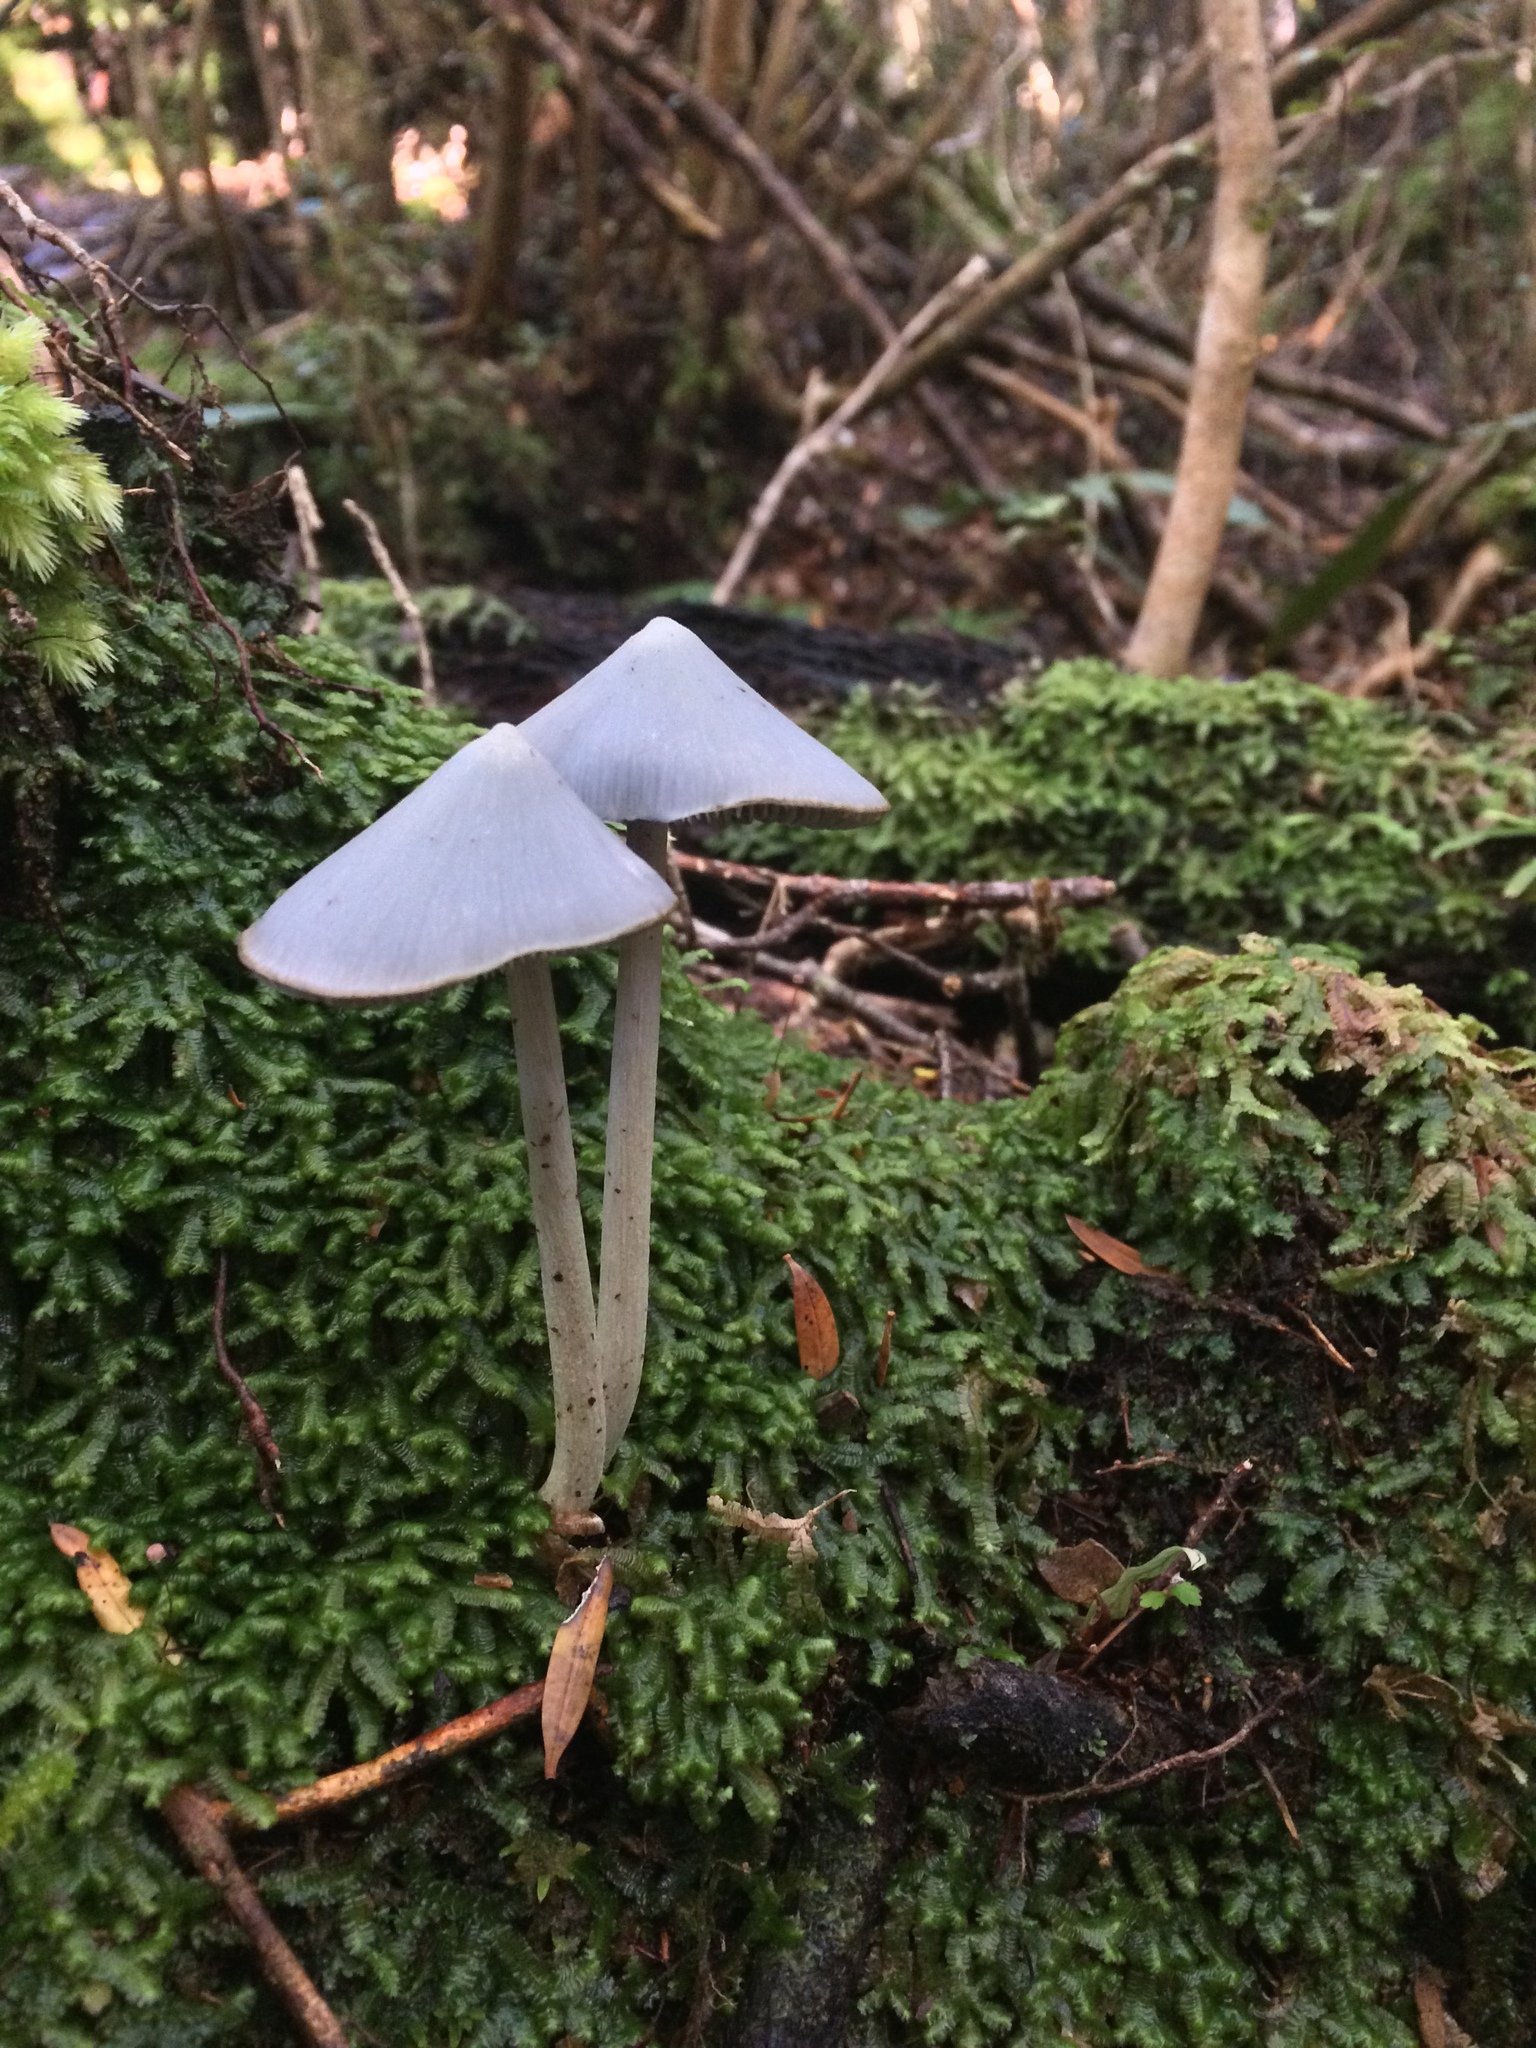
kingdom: Fungi
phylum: Basidiomycota
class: Agaricomycetes
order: Agaricales
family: Entolomataceae
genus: Entoloma
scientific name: Entoloma canoconicum
